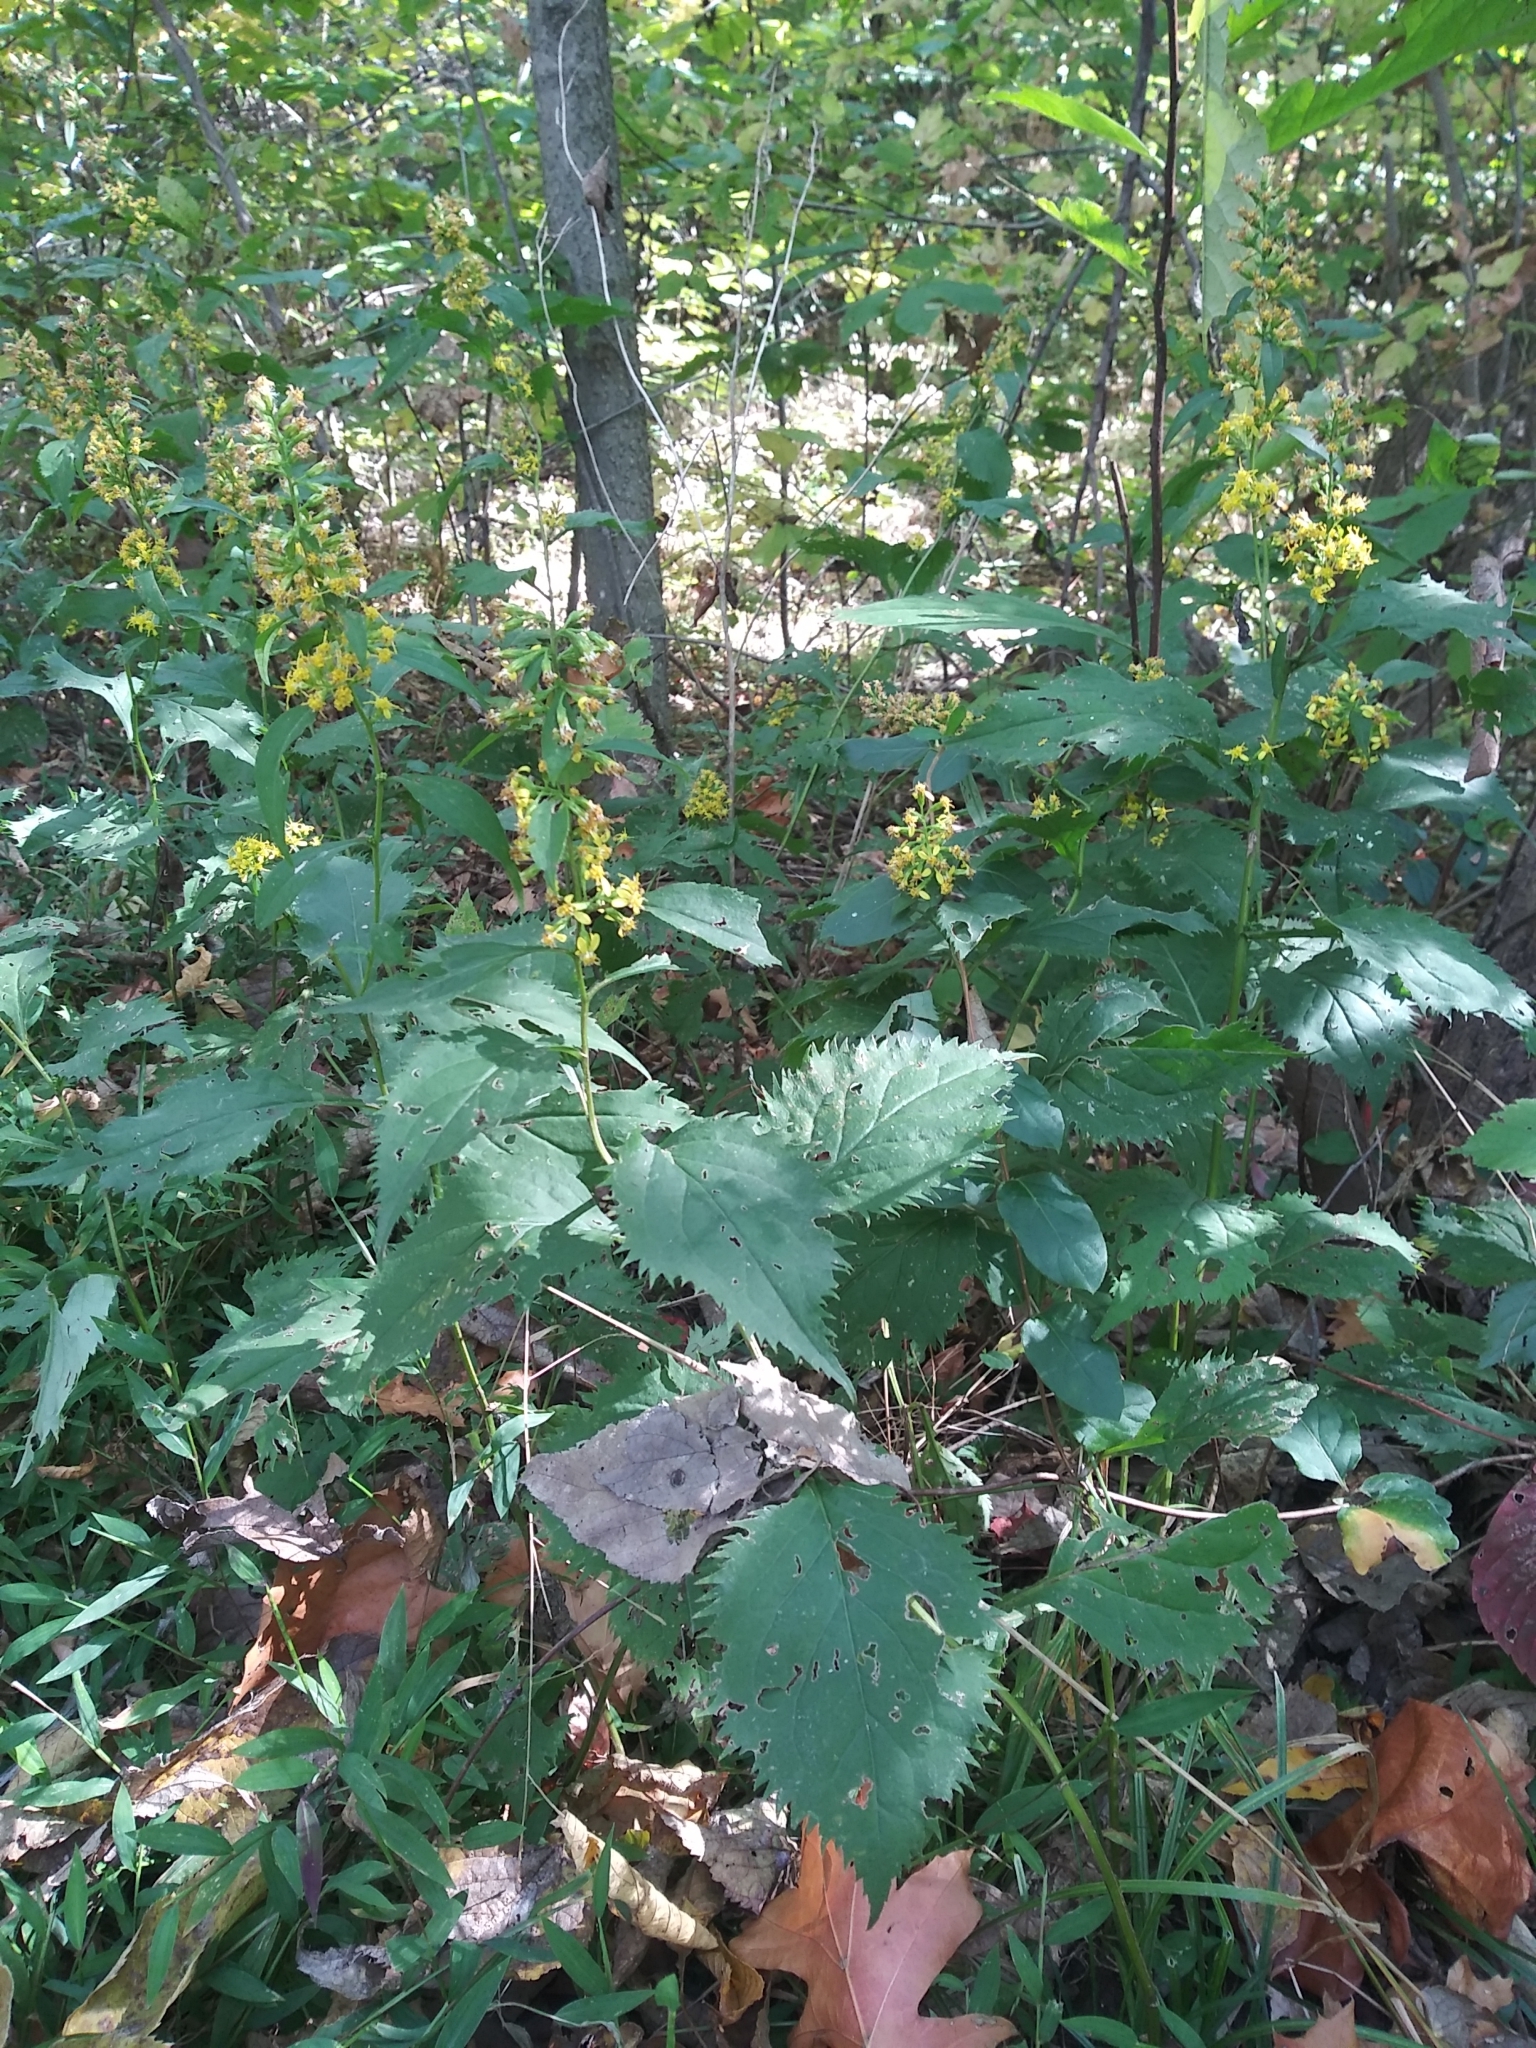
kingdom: Plantae
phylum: Tracheophyta
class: Magnoliopsida
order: Asterales
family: Asteraceae
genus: Solidago
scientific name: Solidago flexicaulis
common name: Zig-zag goldenrod
